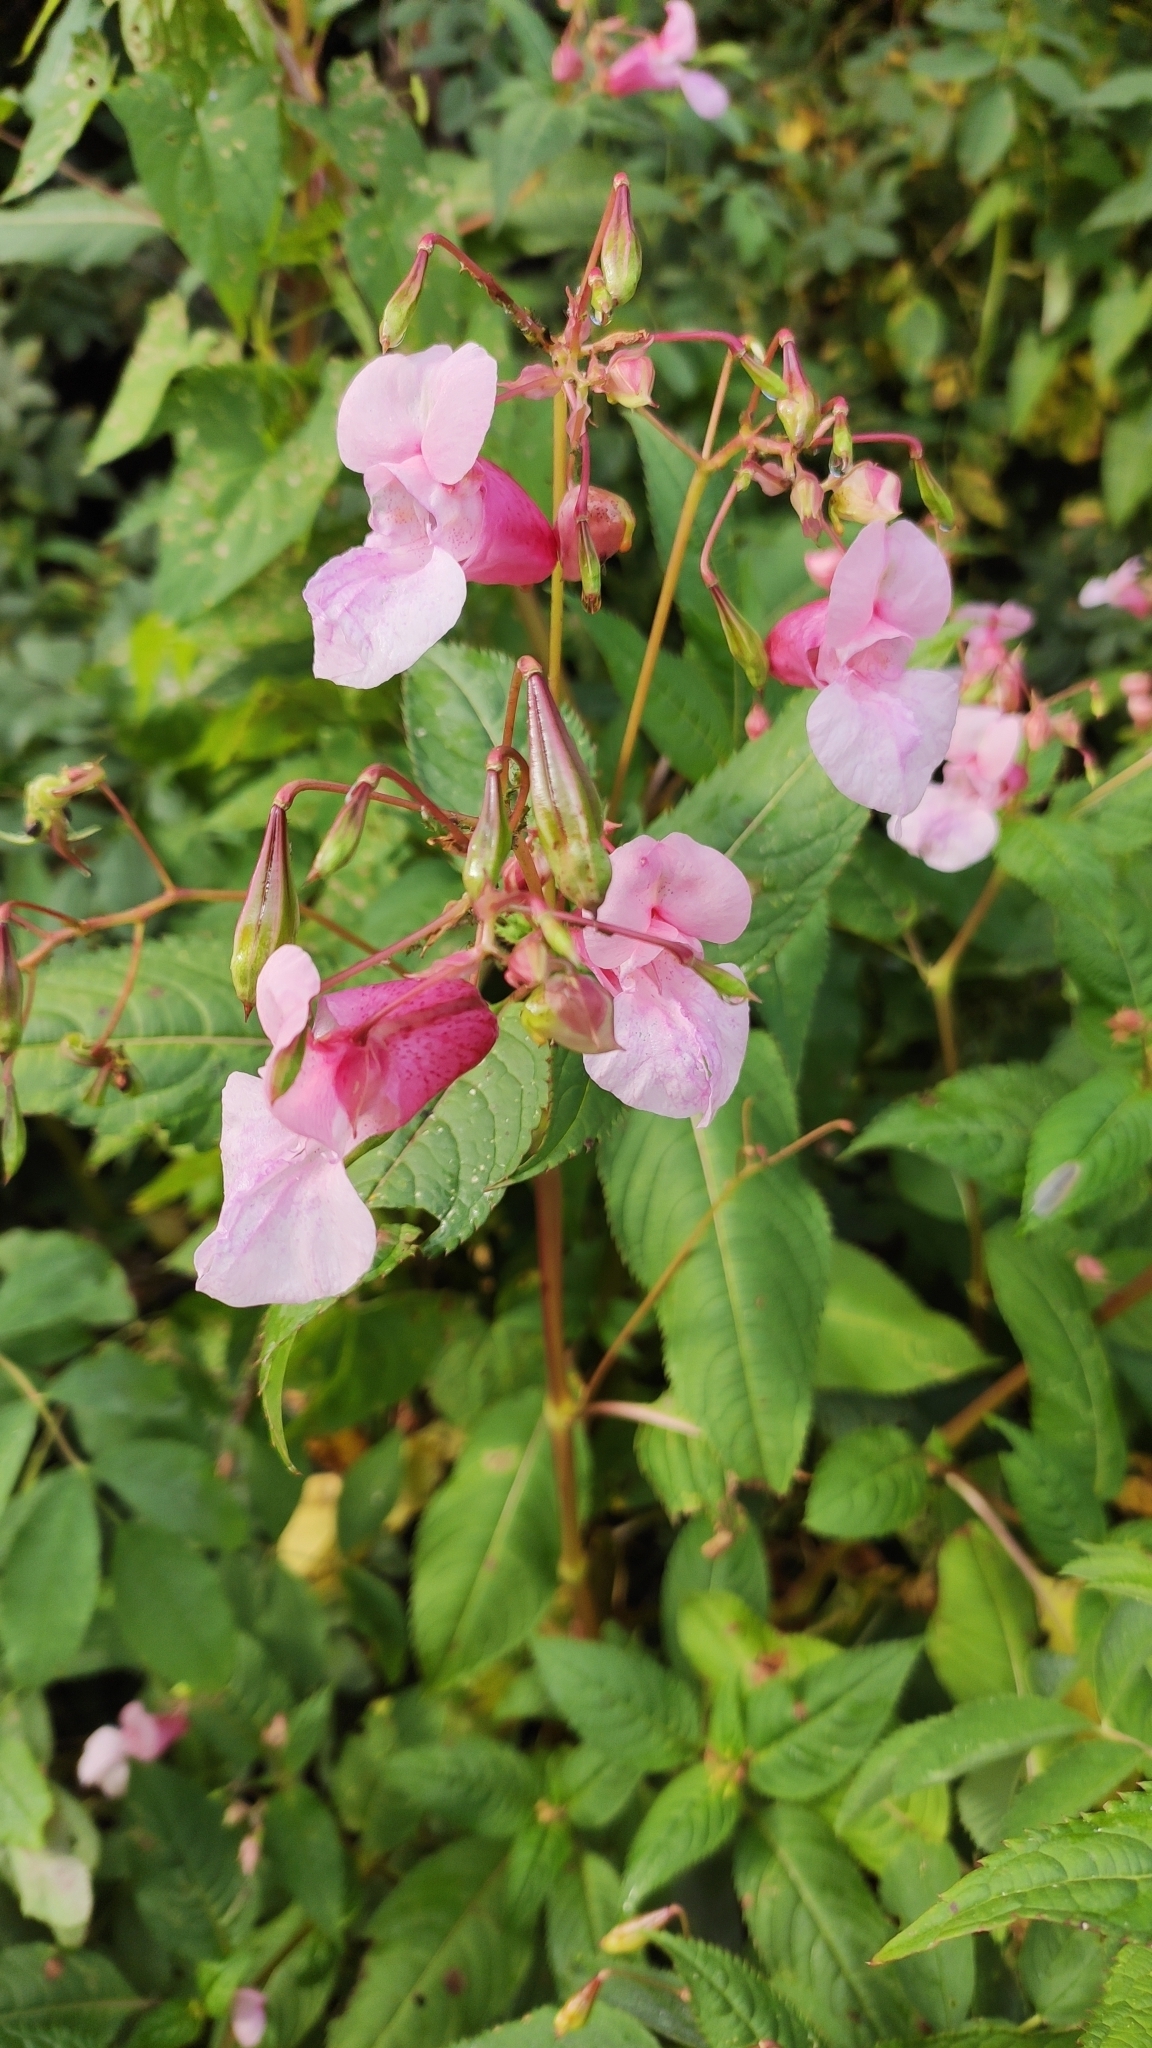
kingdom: Plantae
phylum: Tracheophyta
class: Magnoliopsida
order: Ericales
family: Balsaminaceae
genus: Impatiens
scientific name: Impatiens glandulifera
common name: Himalayan balsam
